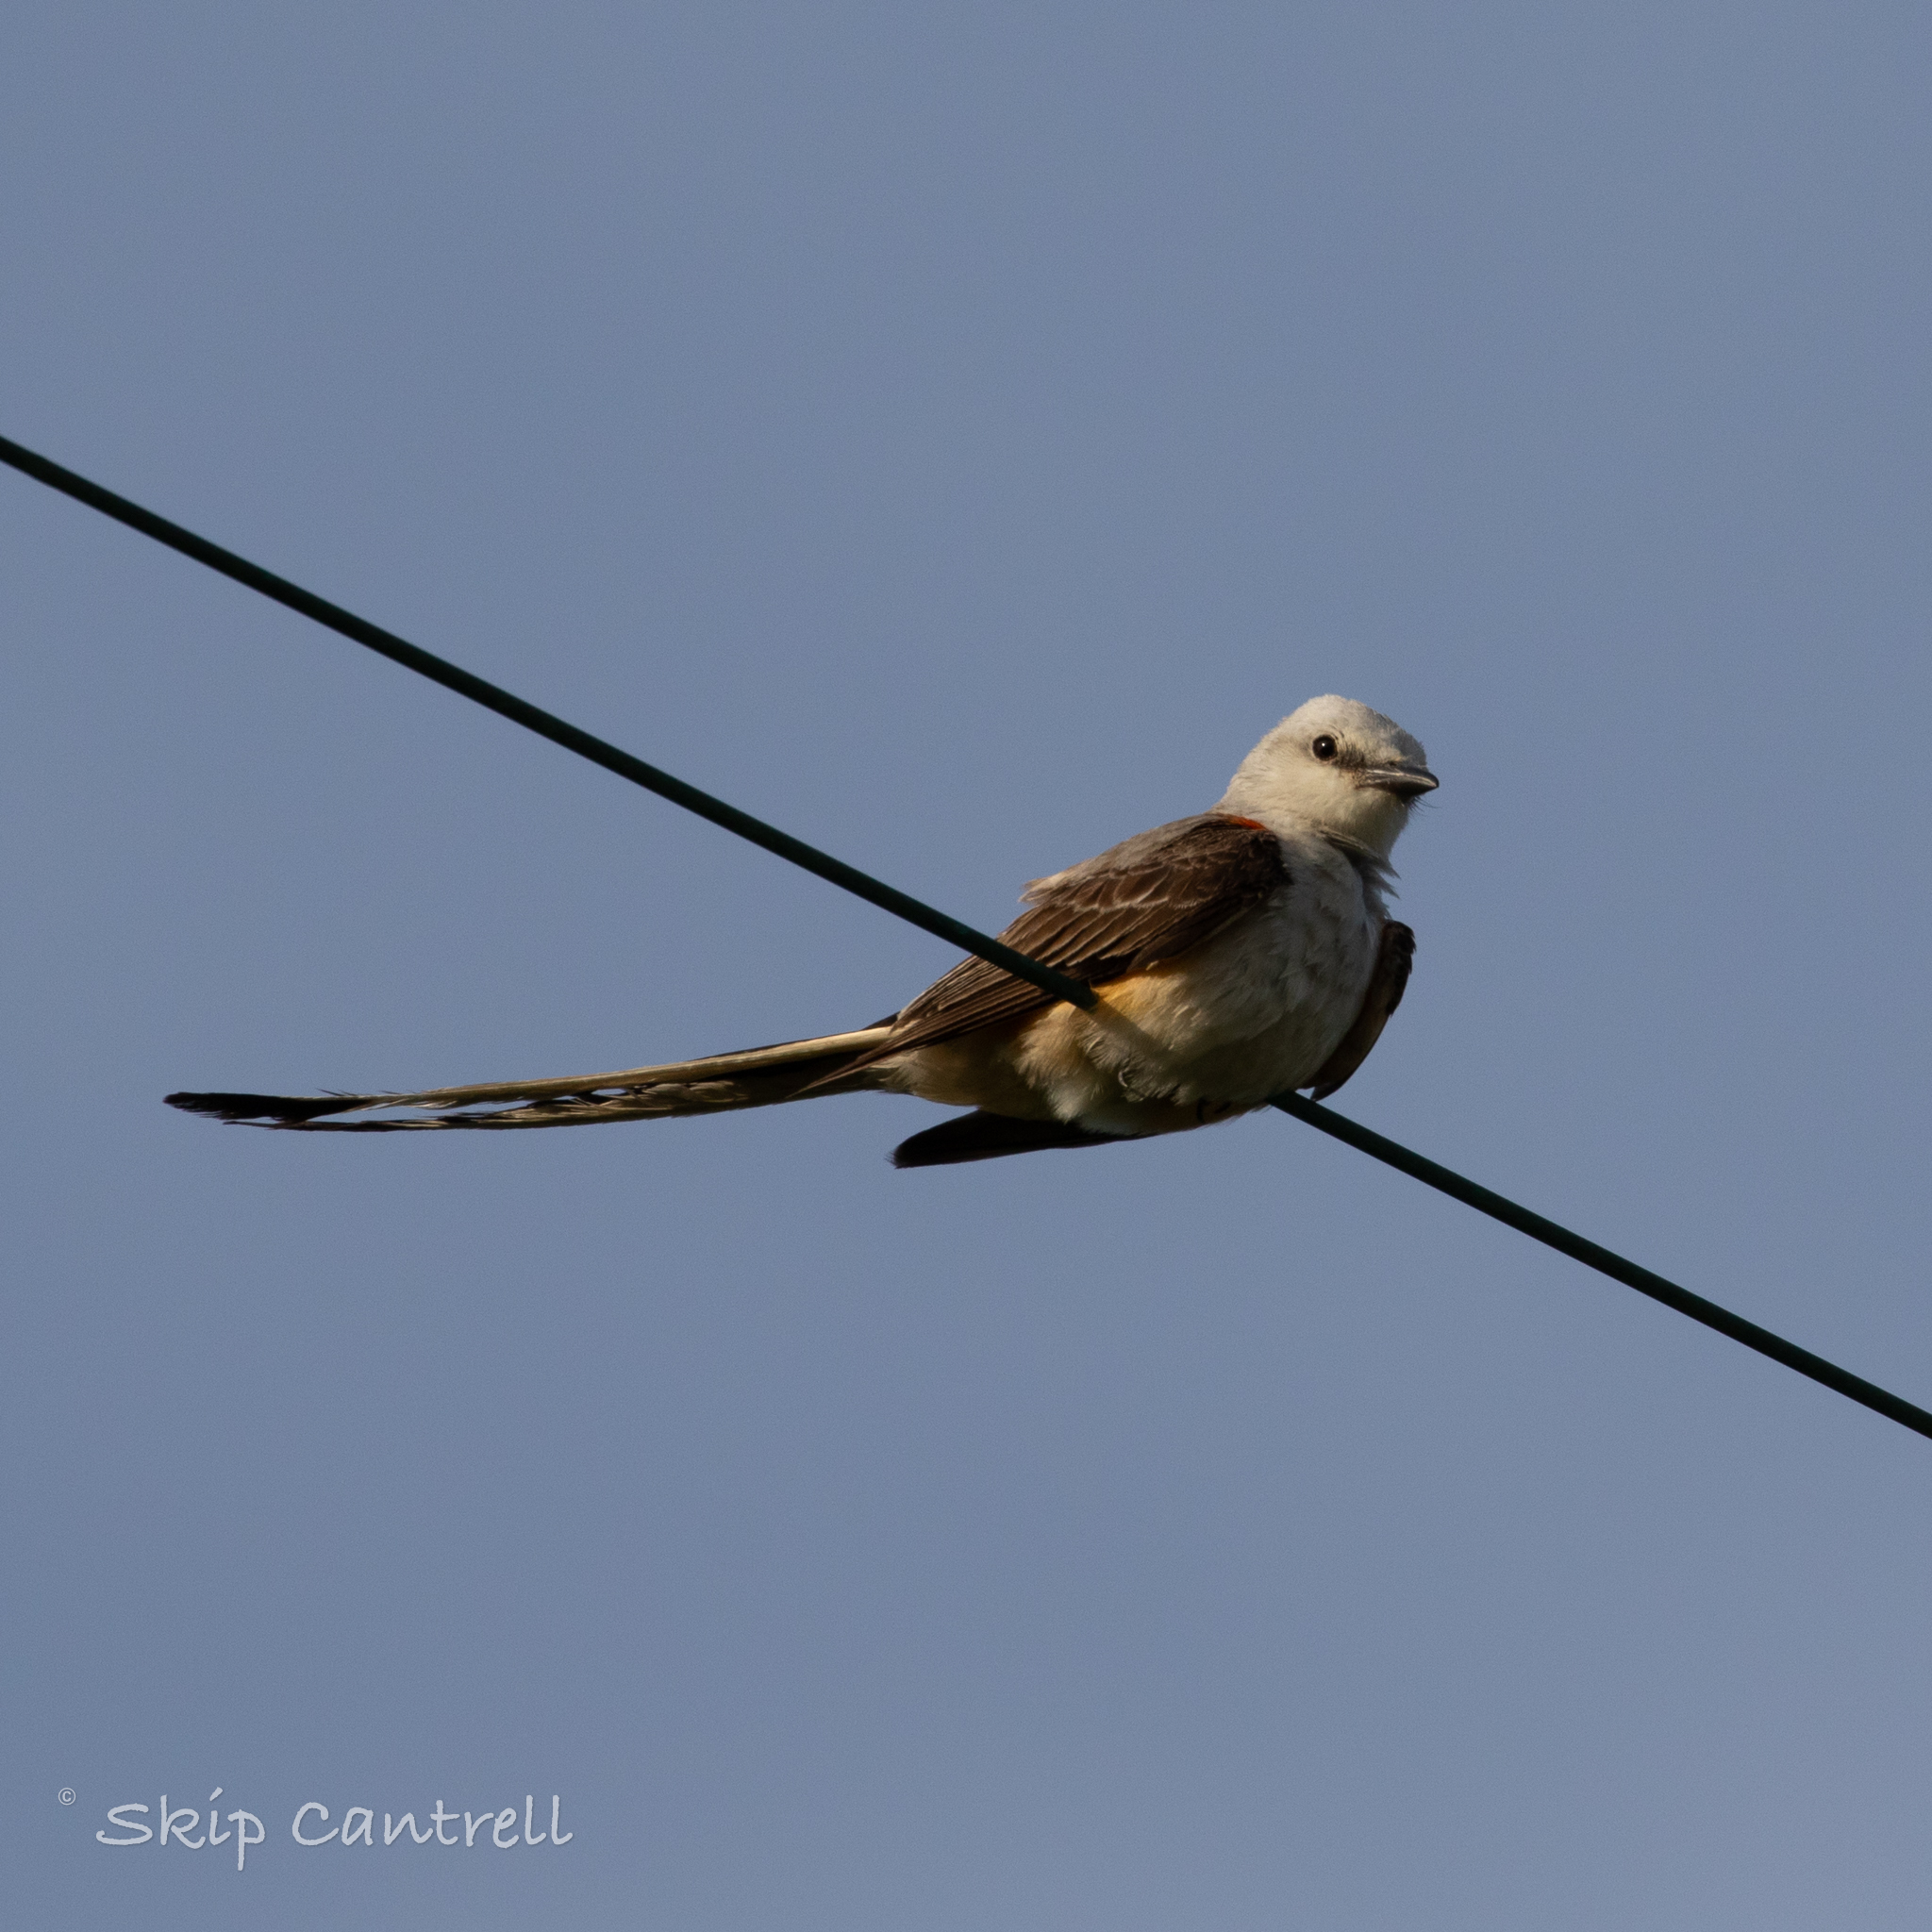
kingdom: Animalia
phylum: Chordata
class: Aves
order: Passeriformes
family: Tyrannidae
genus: Tyrannus
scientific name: Tyrannus forficatus
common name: Scissor-tailed flycatcher
